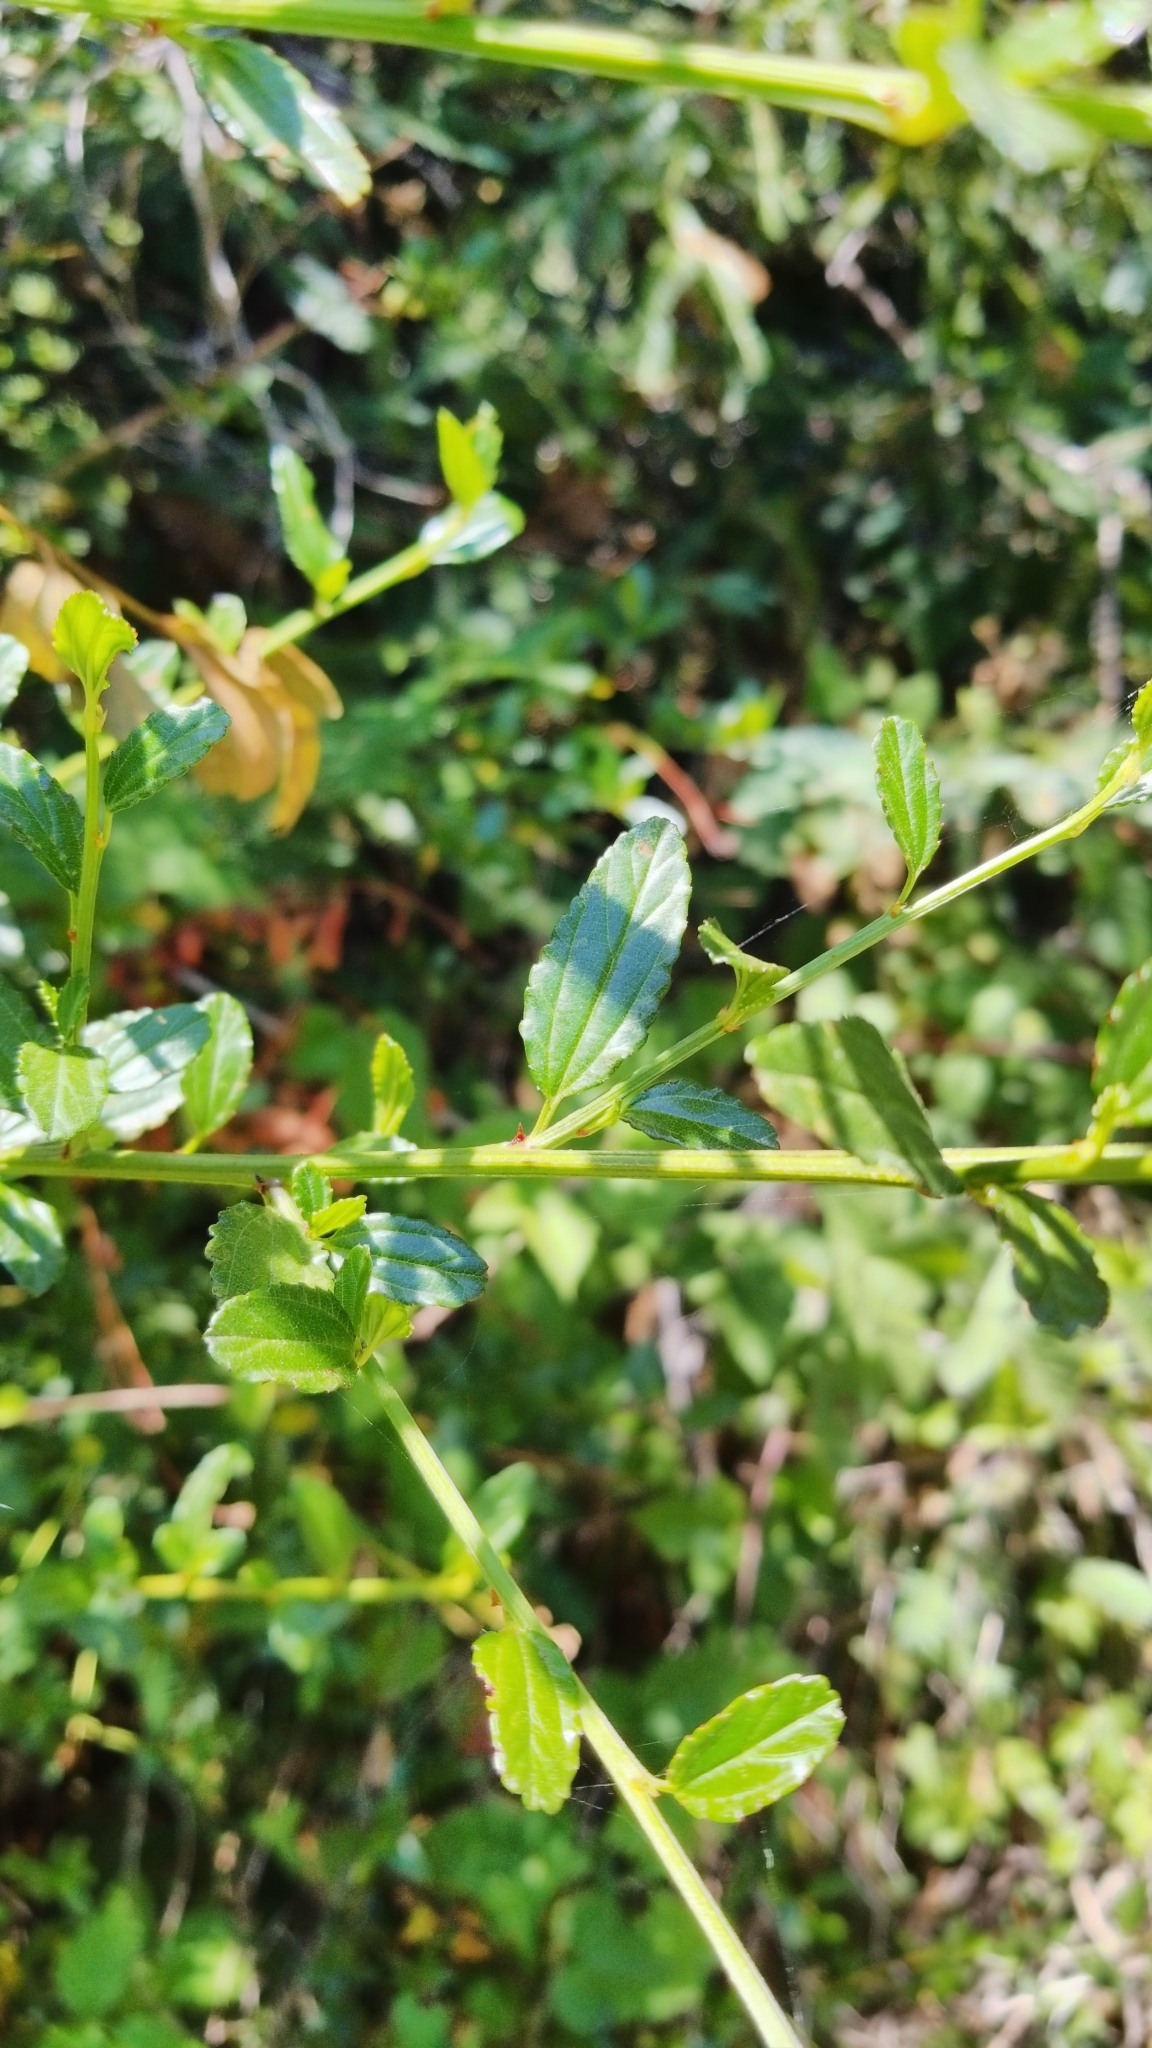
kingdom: Plantae
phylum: Tracheophyta
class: Magnoliopsida
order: Rosales
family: Rhamnaceae
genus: Ceanothus
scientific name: Ceanothus thyrsiflorus
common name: California-lilac
